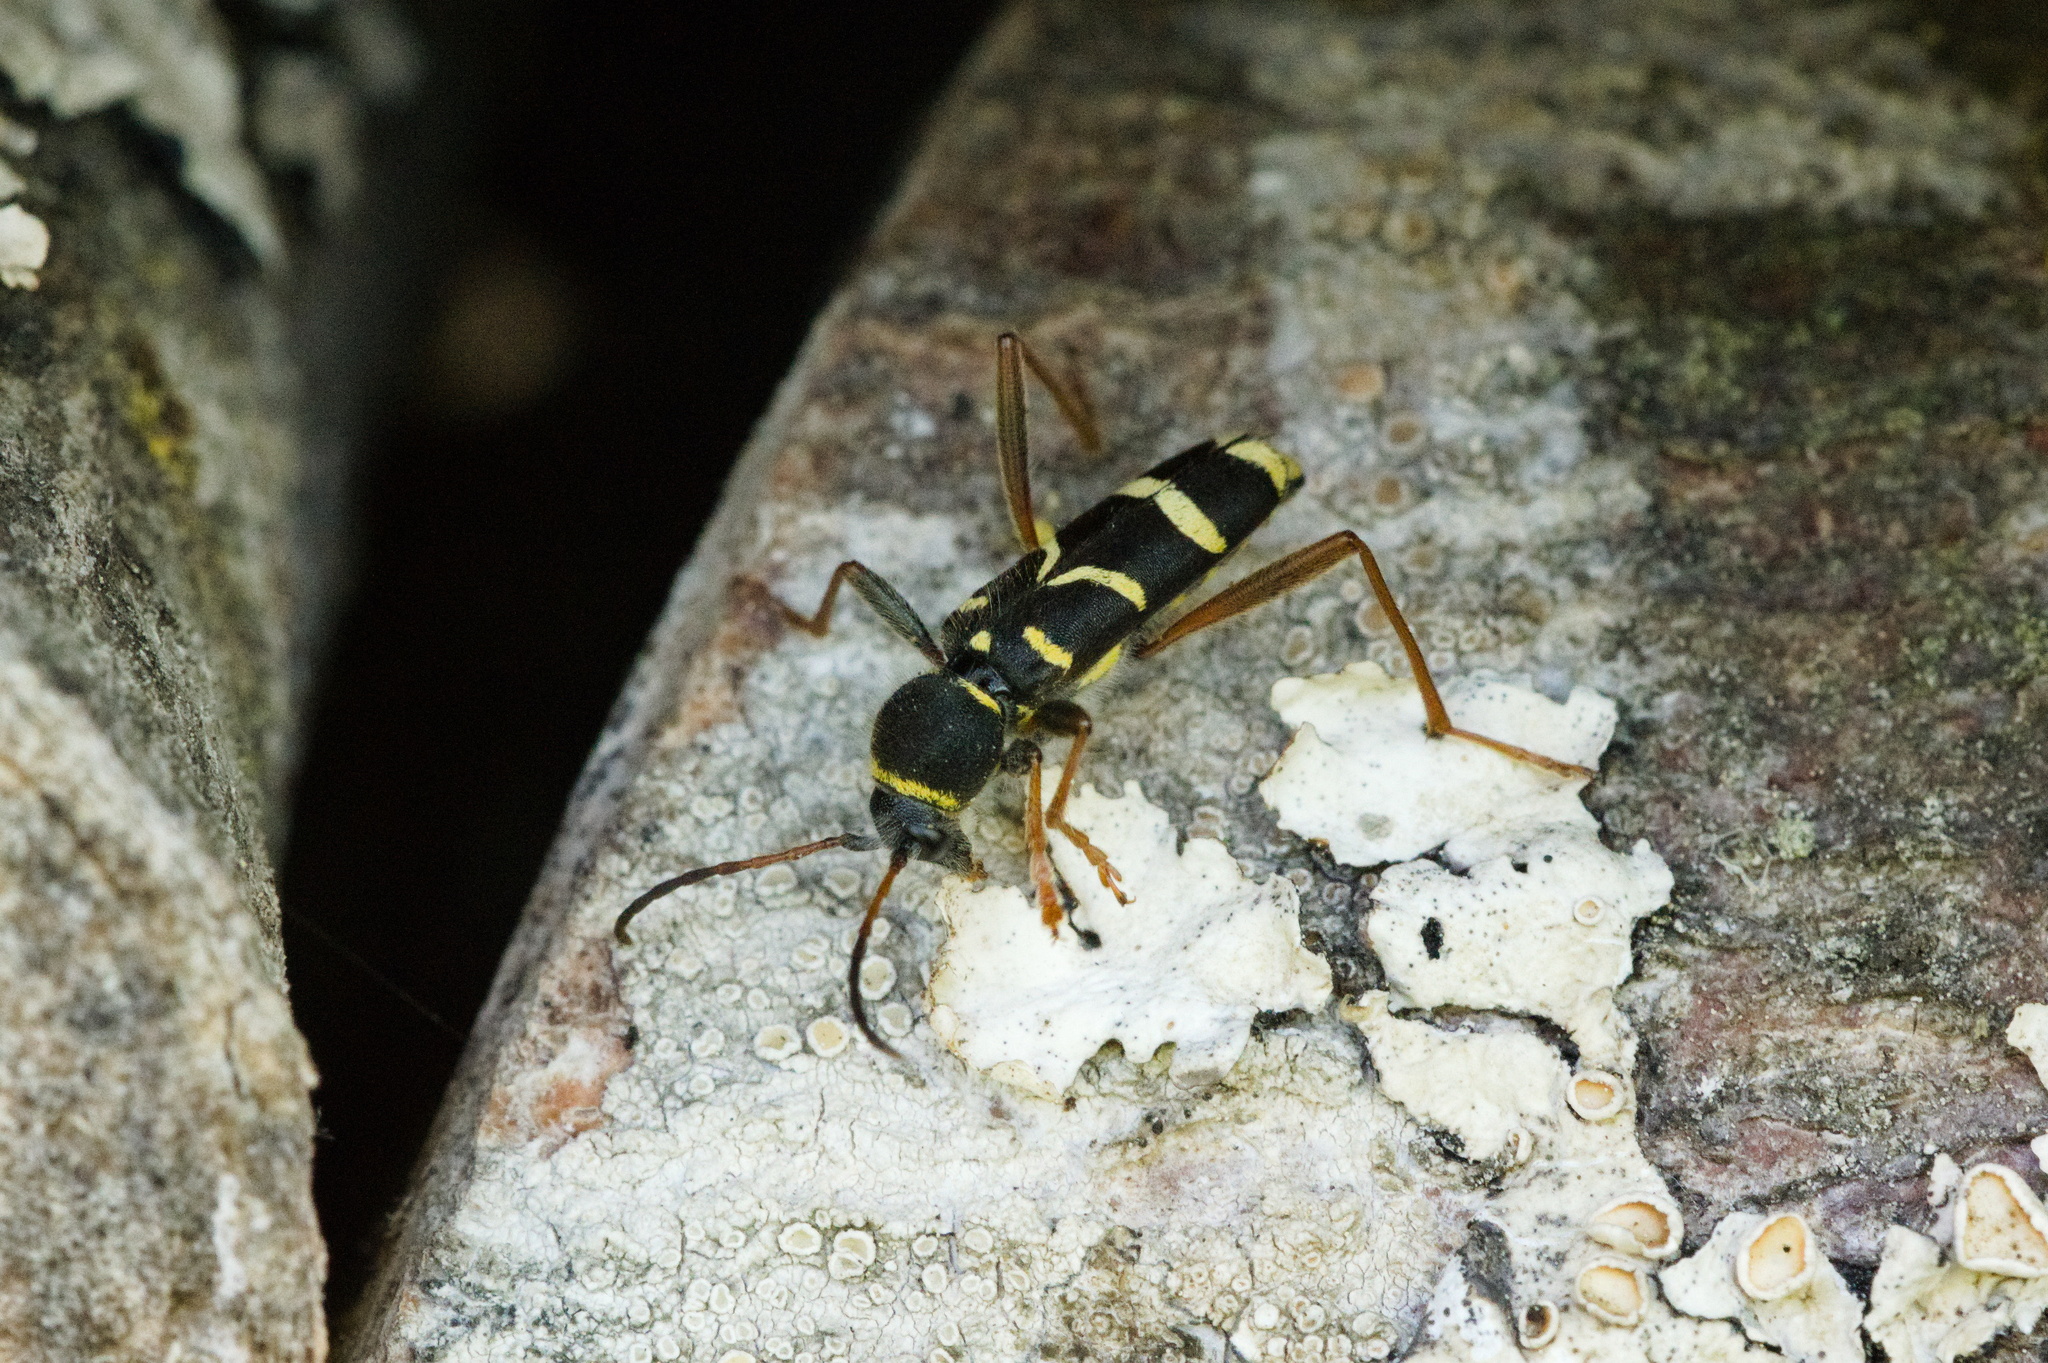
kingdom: Animalia
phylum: Arthropoda
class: Insecta
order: Coleoptera
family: Cerambycidae
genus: Clytus
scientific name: Clytus arietis
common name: Wasp beetle
